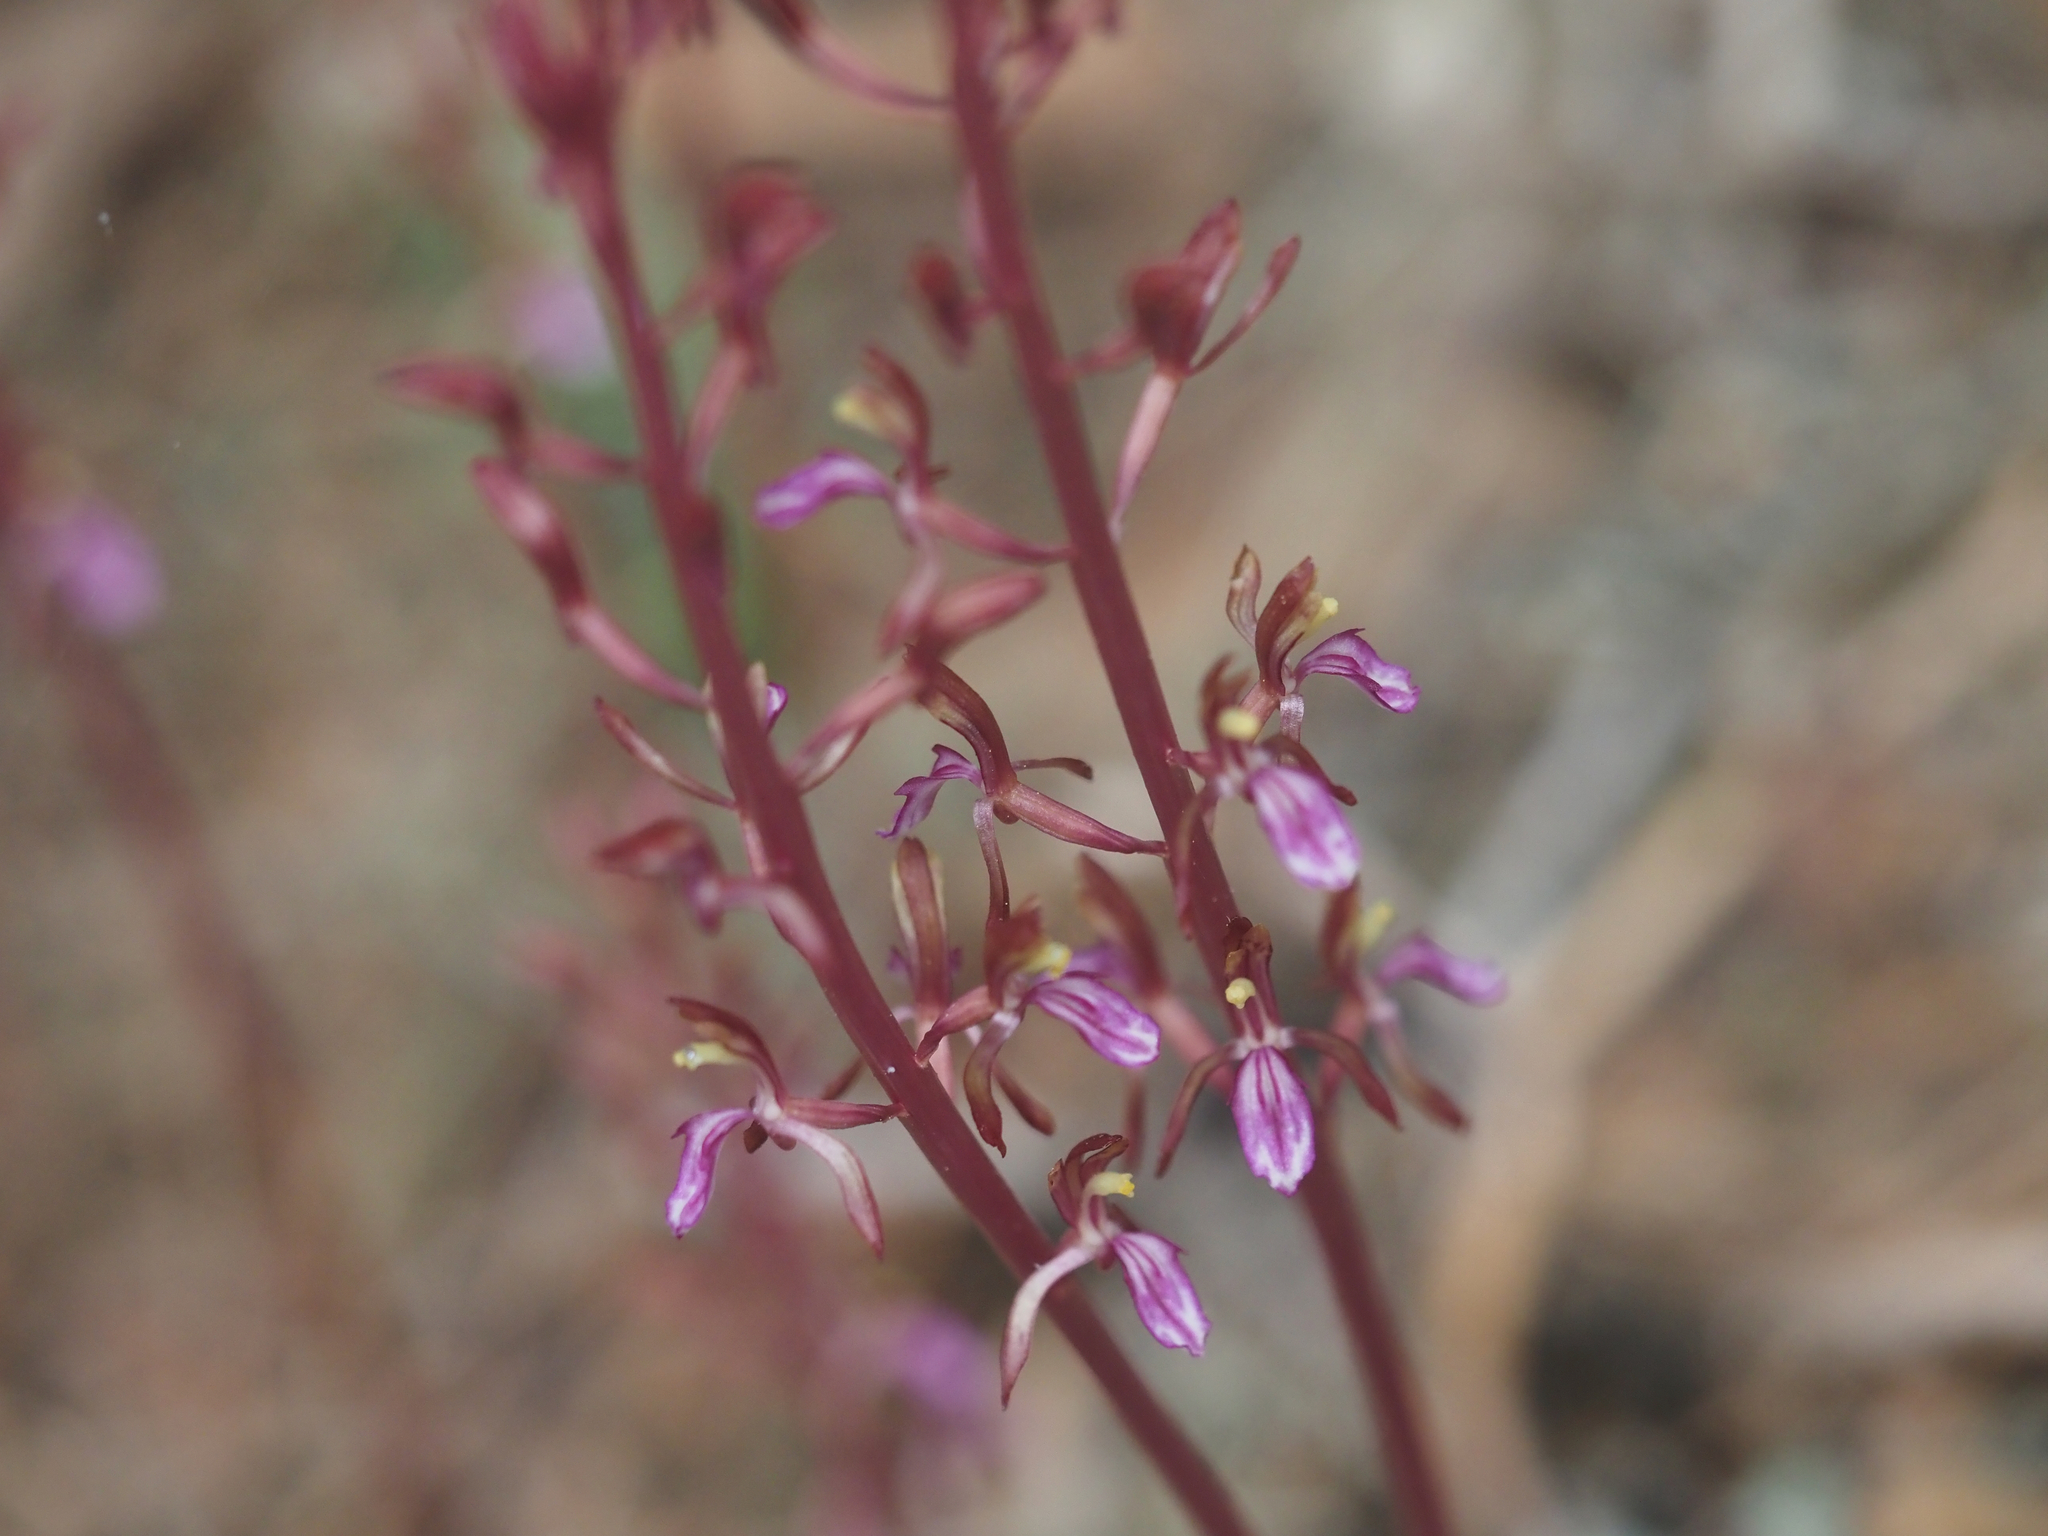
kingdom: Plantae
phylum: Tracheophyta
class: Liliopsida
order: Asparagales
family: Orchidaceae
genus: Corallorhiza
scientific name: Corallorhiza mertensiana
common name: Pacific coralroot
